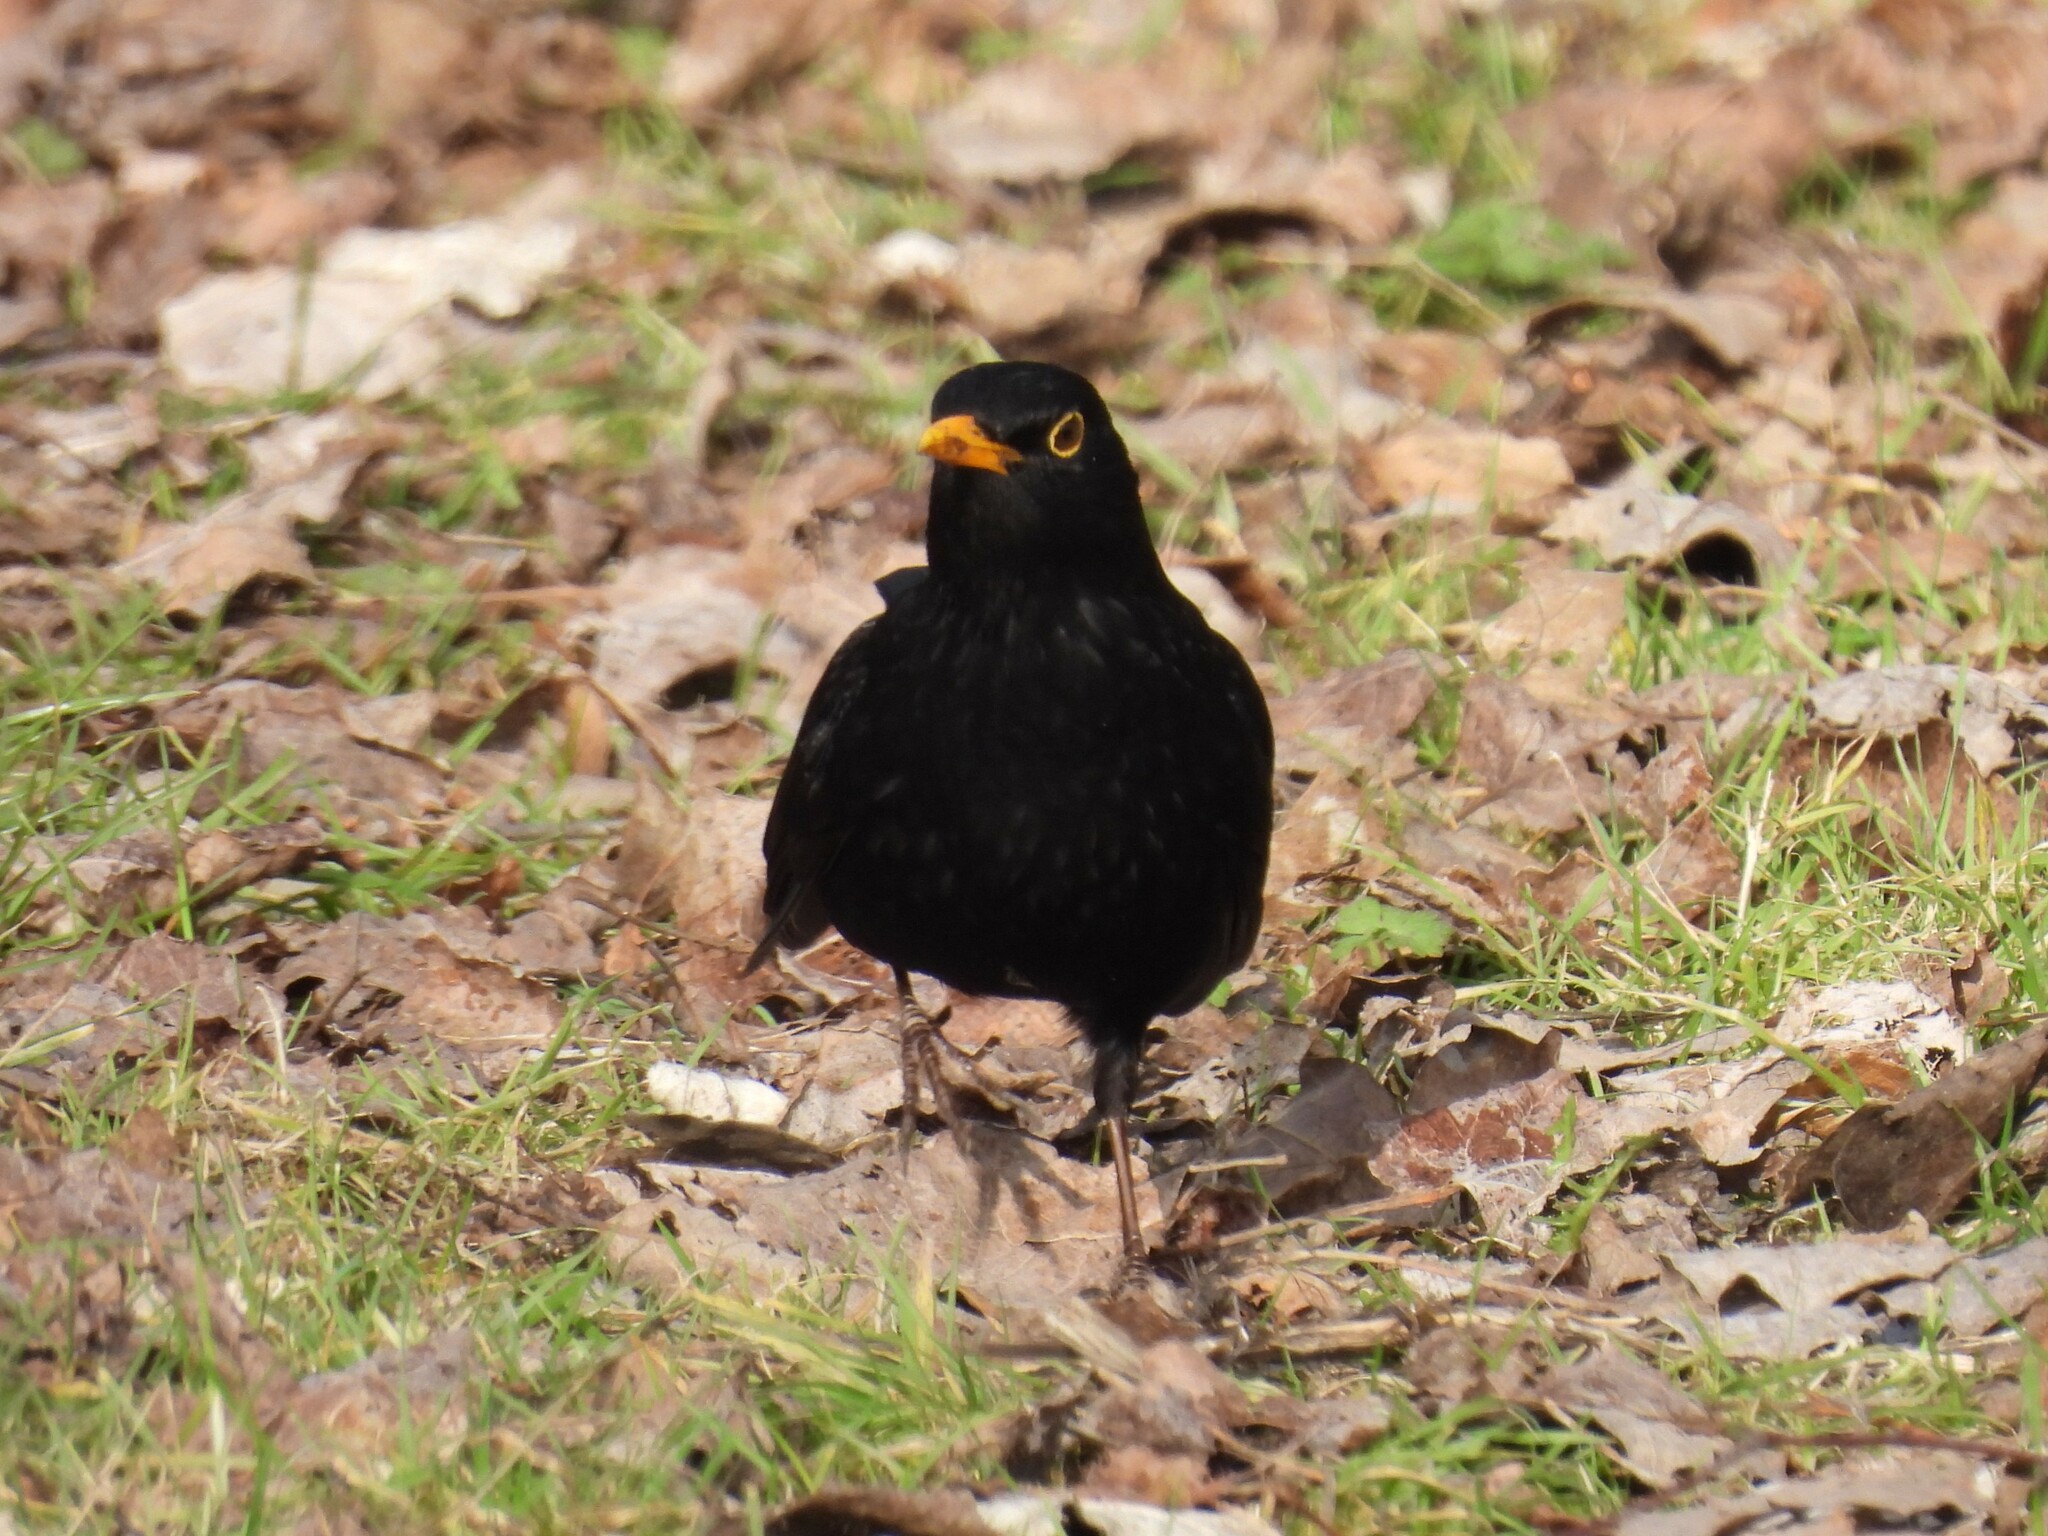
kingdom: Animalia
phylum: Chordata
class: Aves
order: Passeriformes
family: Turdidae
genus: Turdus
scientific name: Turdus merula
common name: Common blackbird
